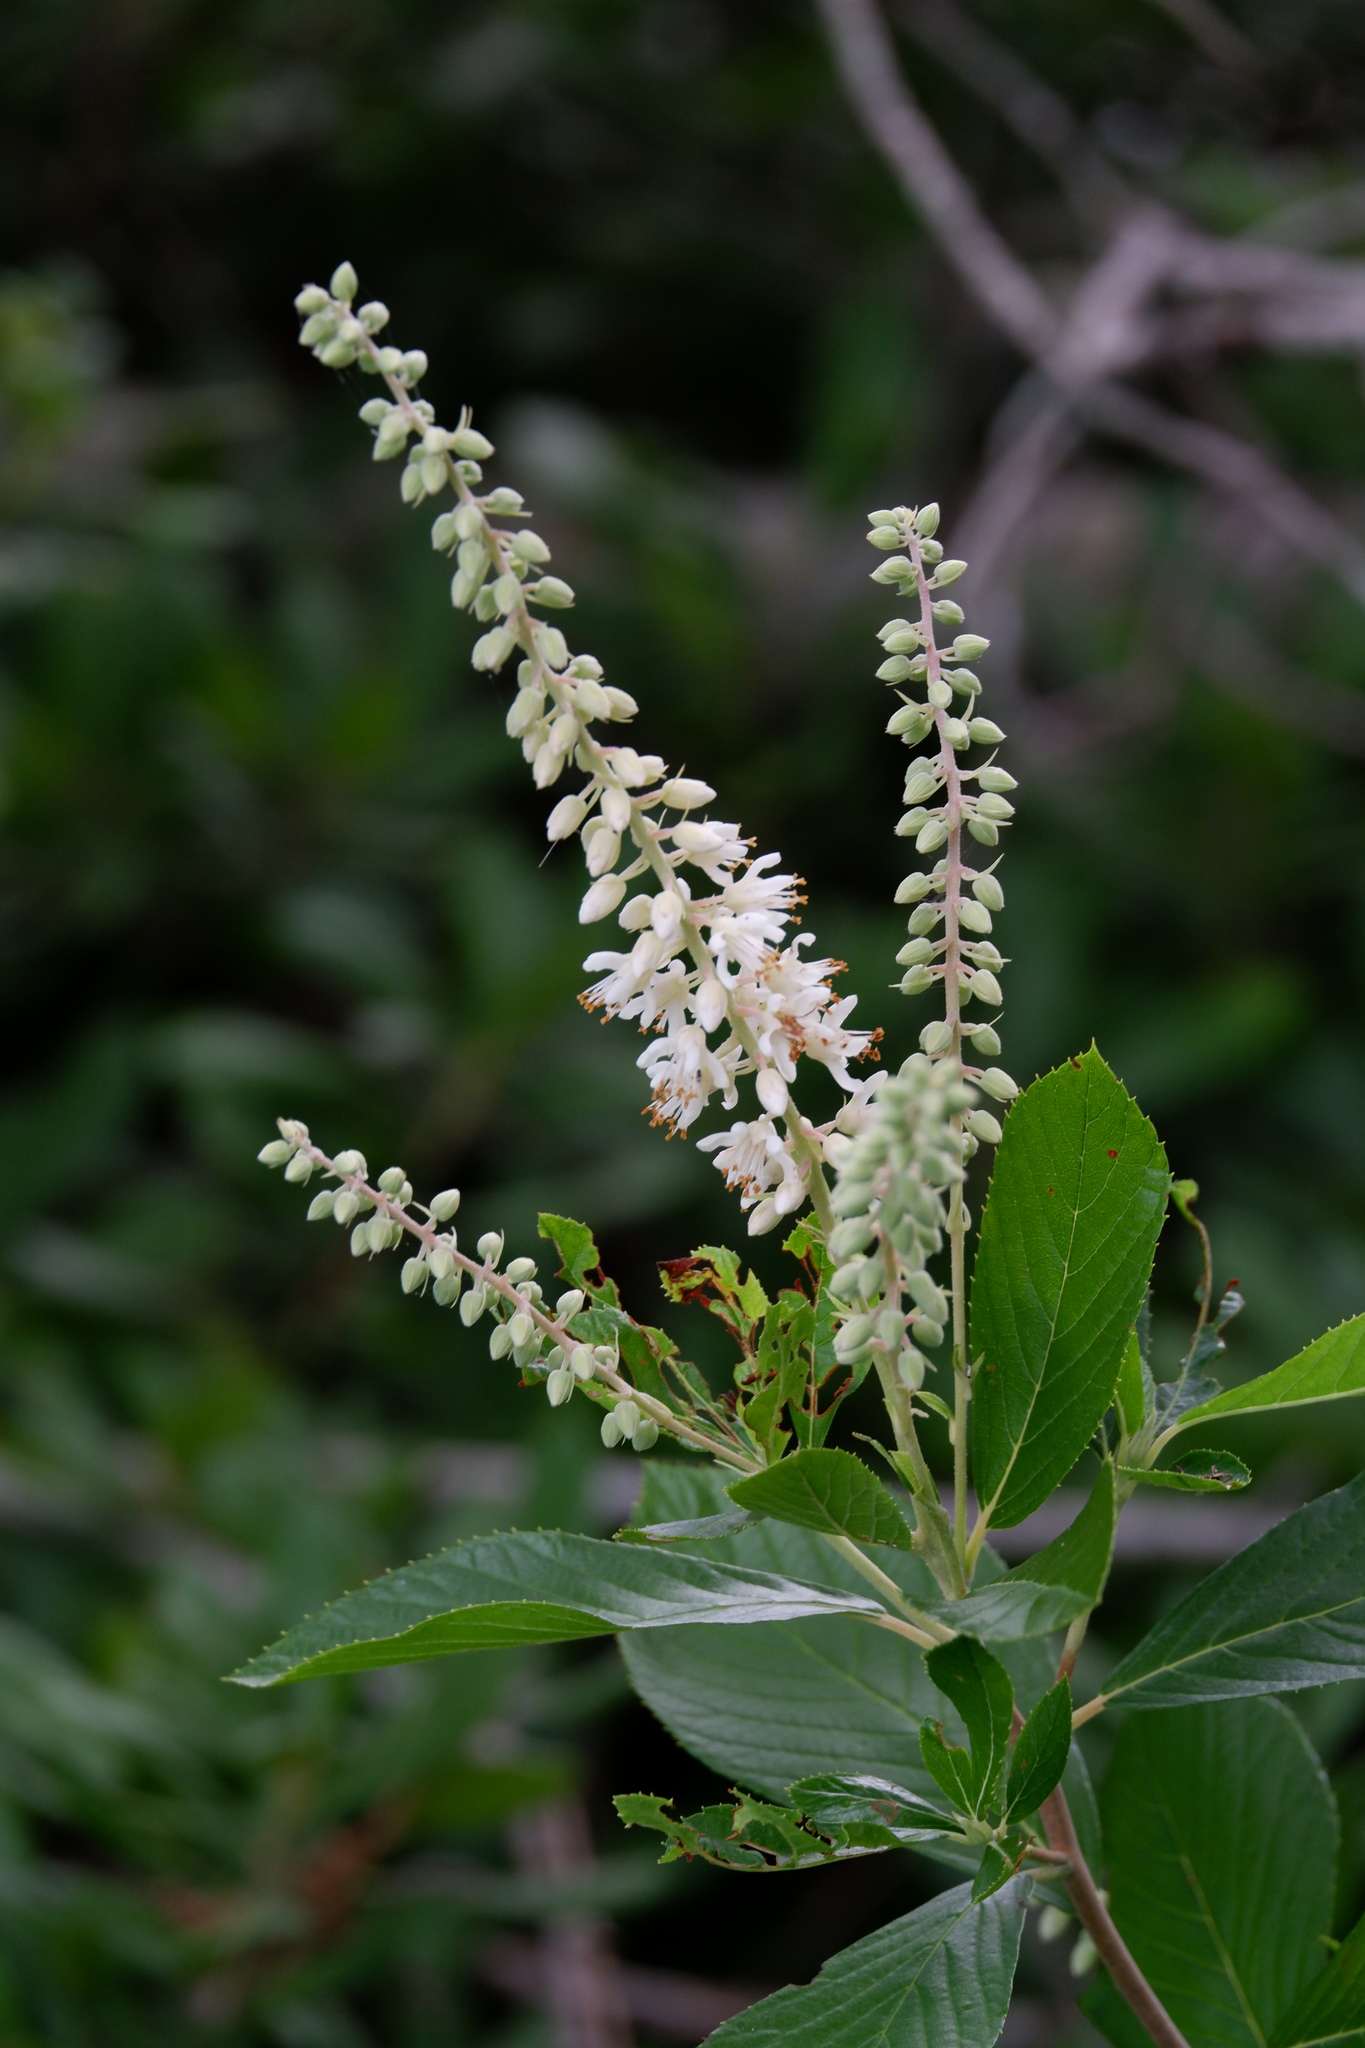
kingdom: Plantae
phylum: Tracheophyta
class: Magnoliopsida
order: Ericales
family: Clethraceae
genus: Clethra
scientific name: Clethra alnifolia
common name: Sweet pepperbush
